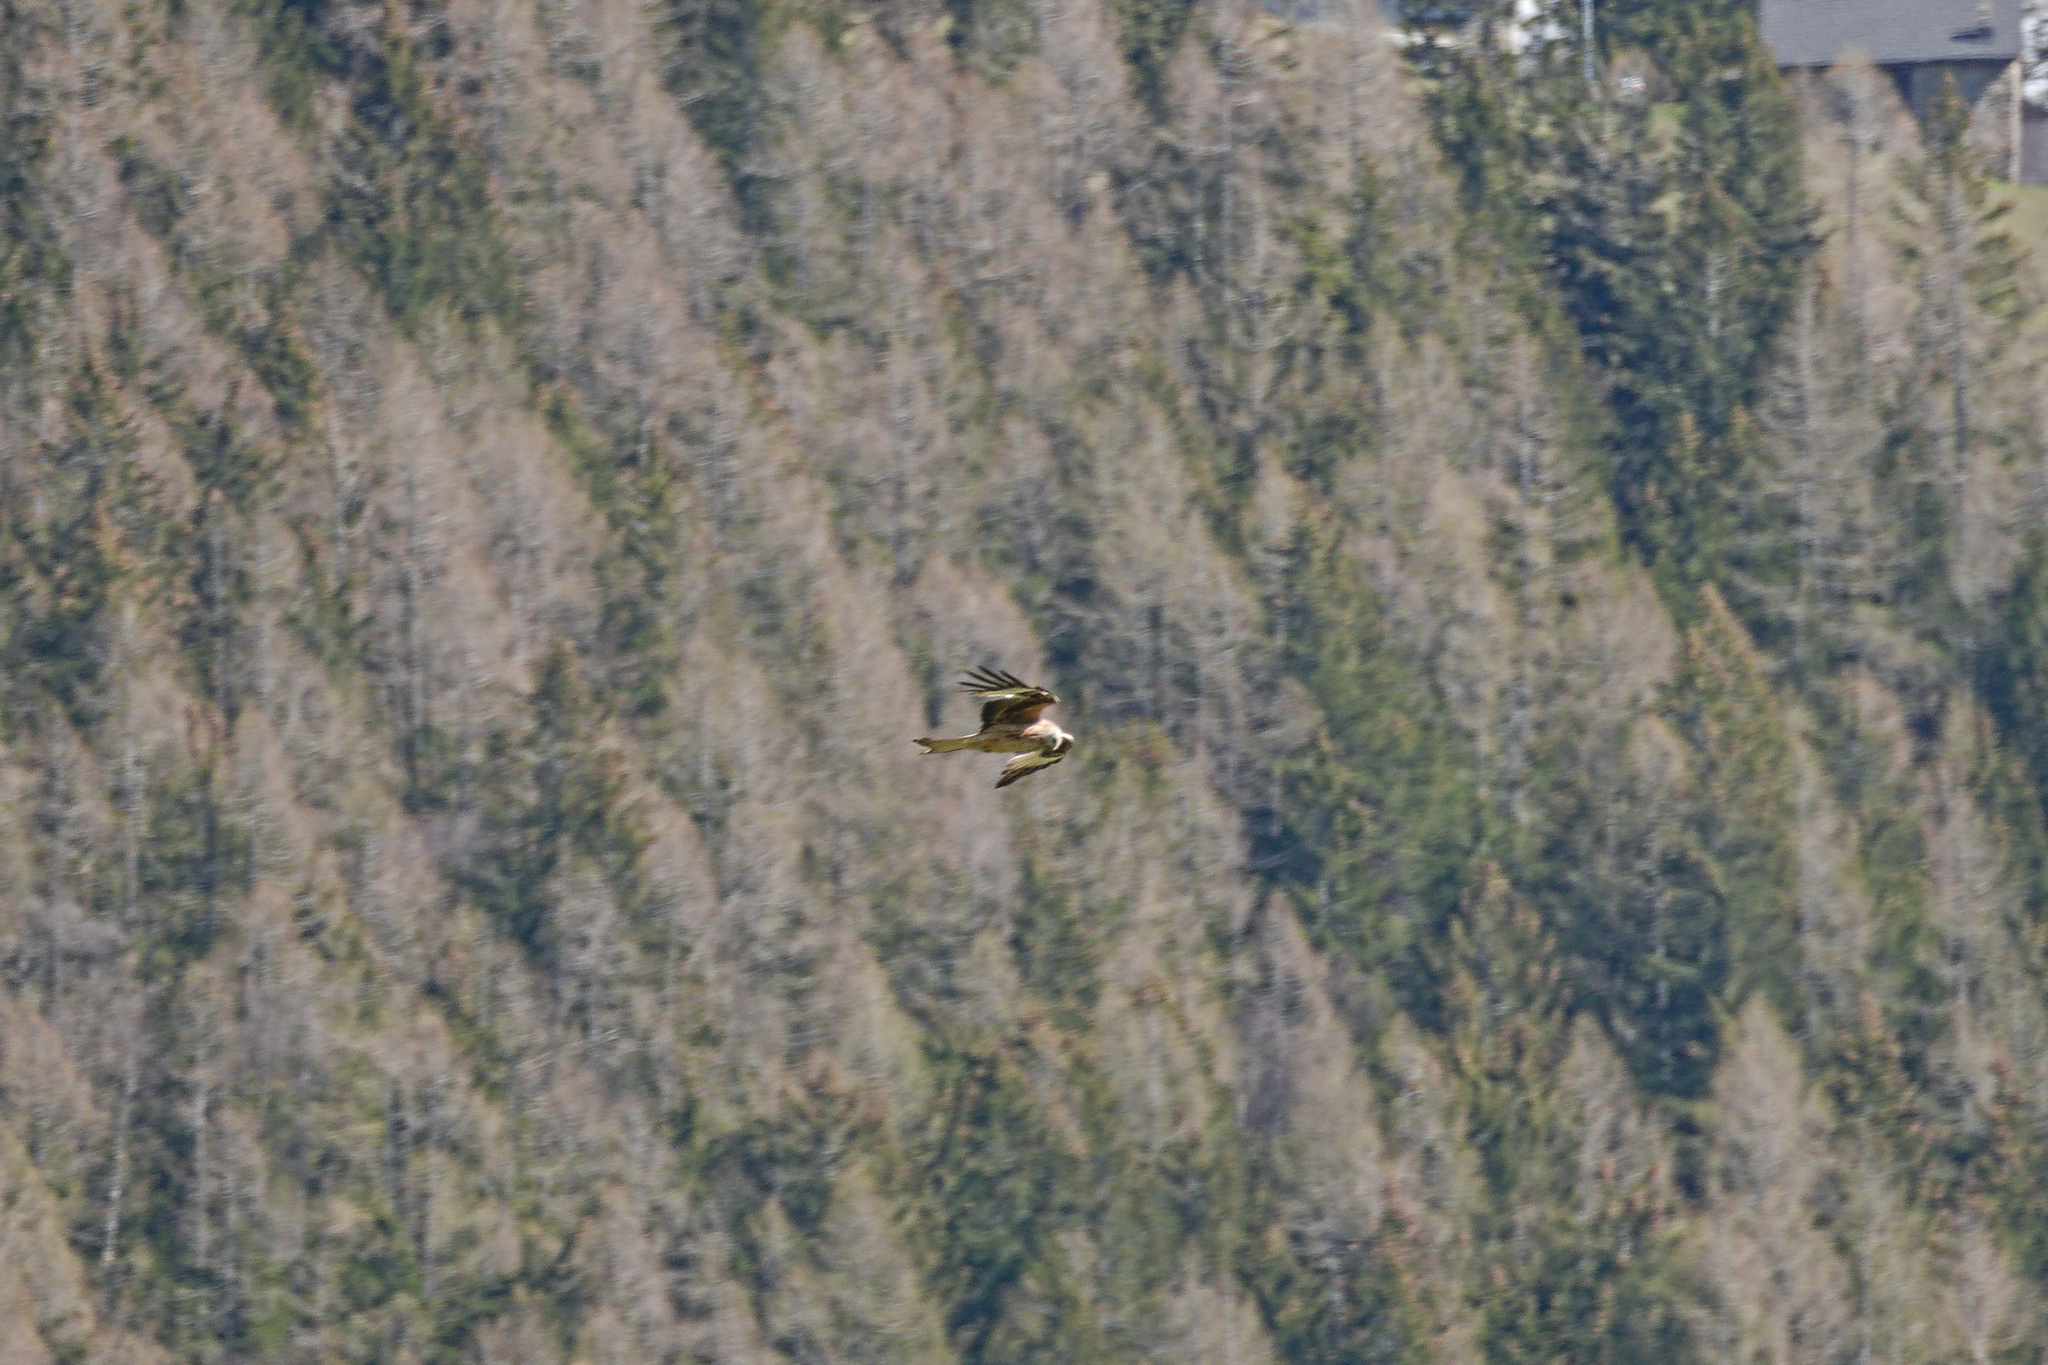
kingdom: Animalia
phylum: Chordata
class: Aves
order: Falconiformes
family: Falconidae
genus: Falco
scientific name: Falco tinnunculus
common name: Common kestrel
